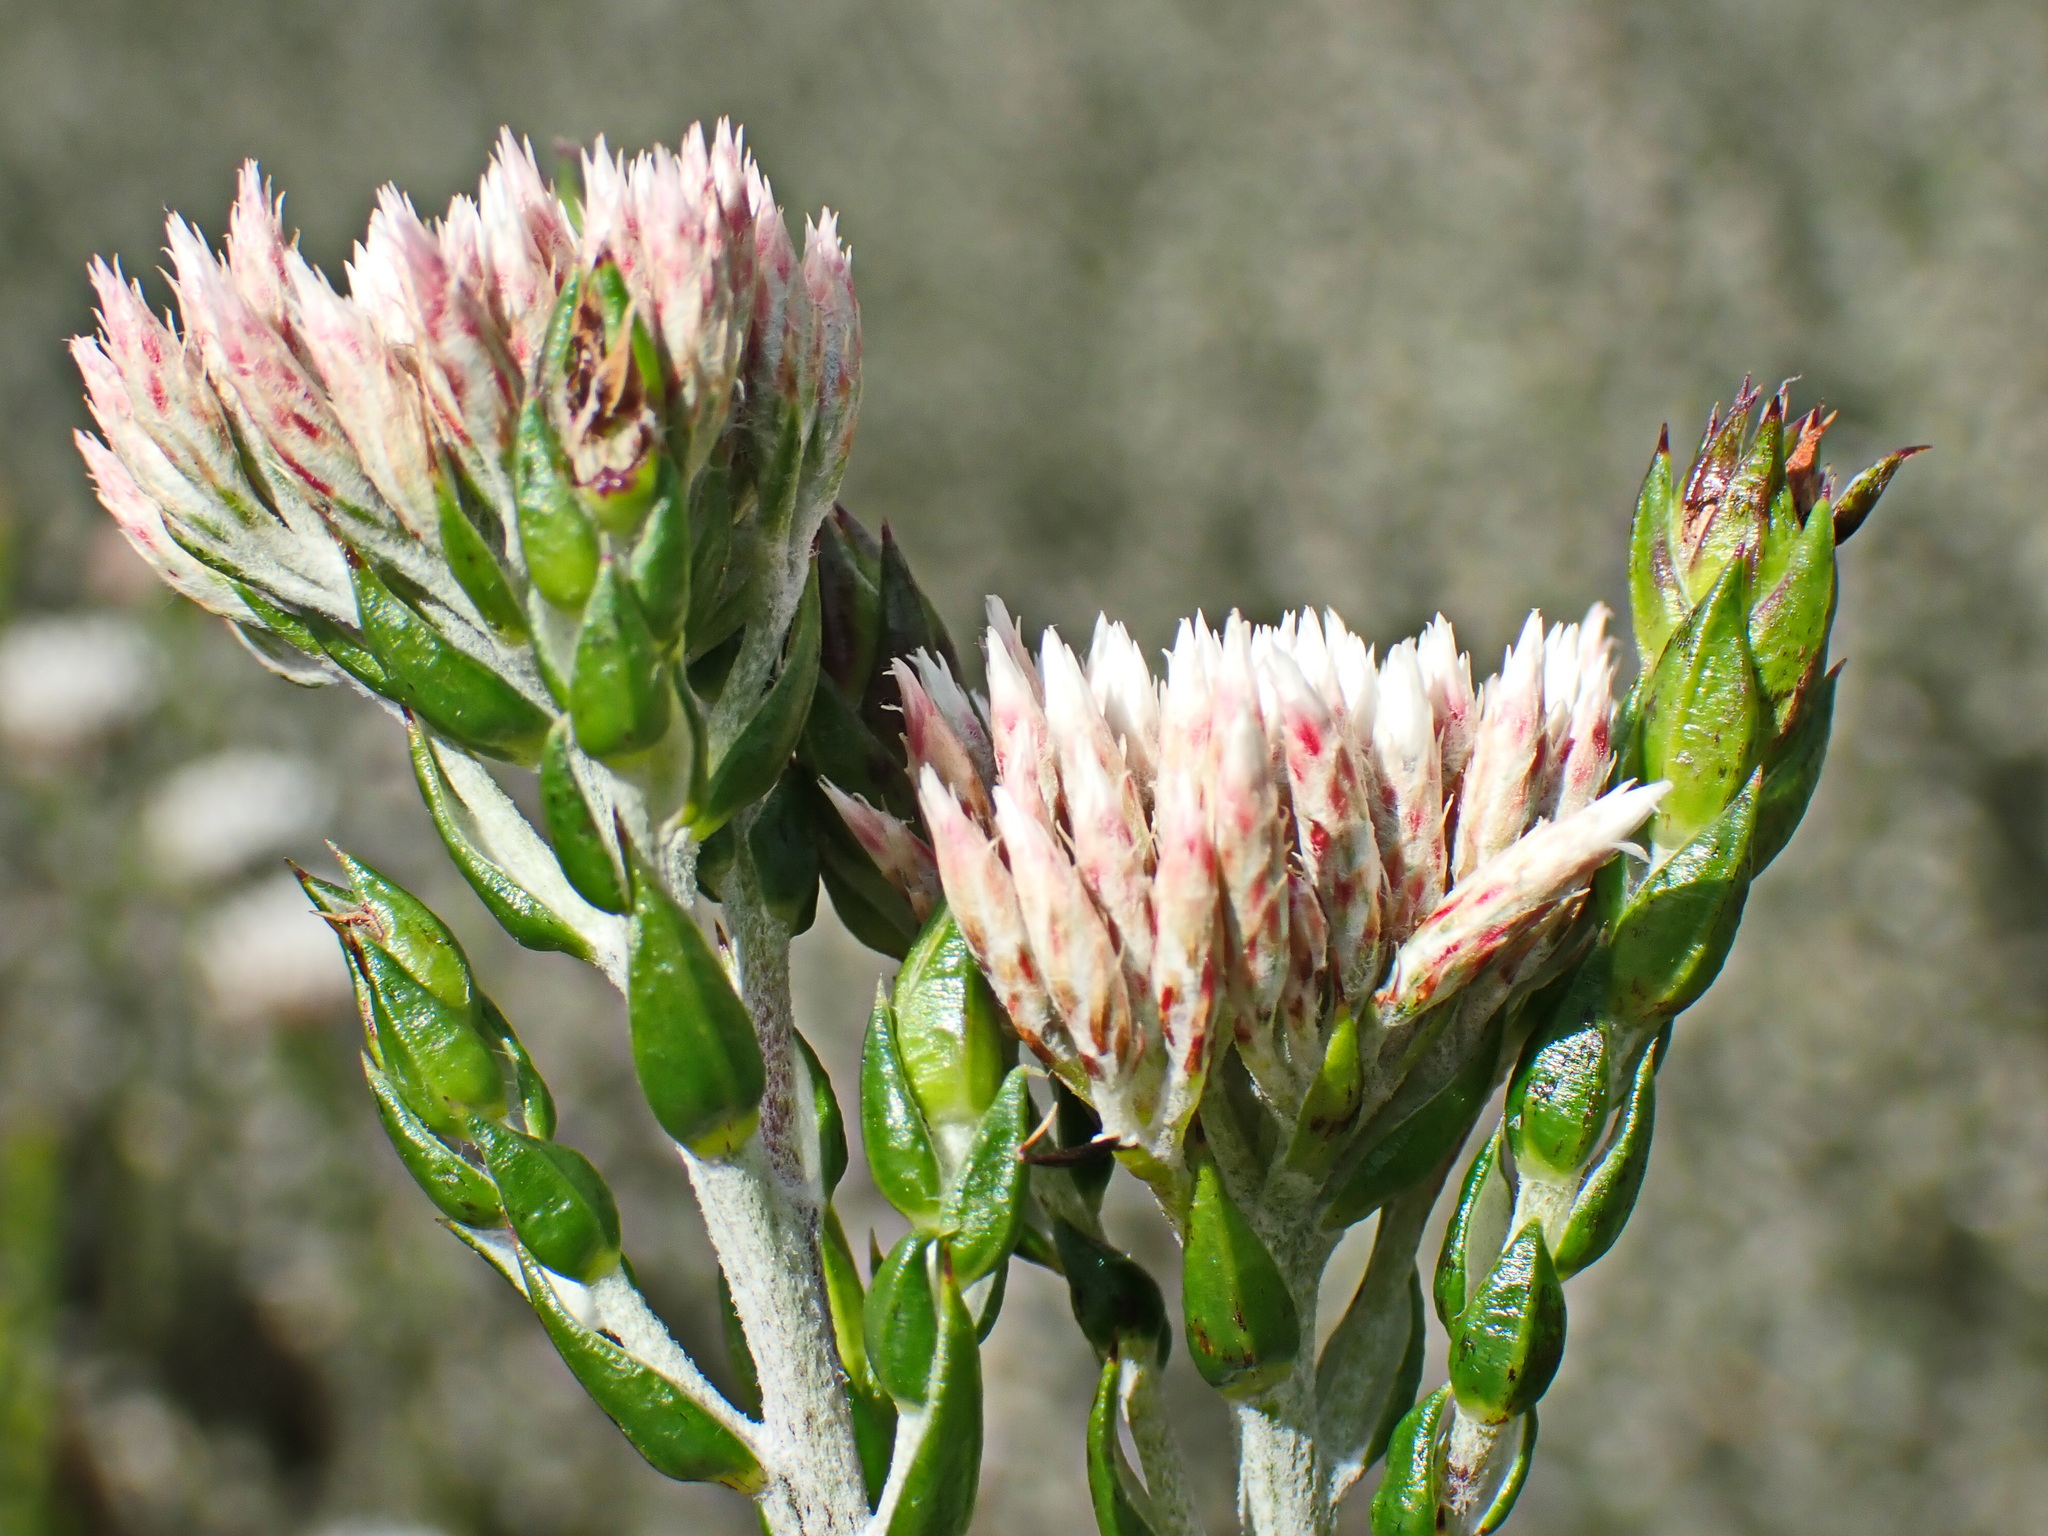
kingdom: Plantae
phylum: Tracheophyta
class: Magnoliopsida
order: Asterales
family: Asteraceae
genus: Metalasia
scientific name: Metalasia pulcherrima
